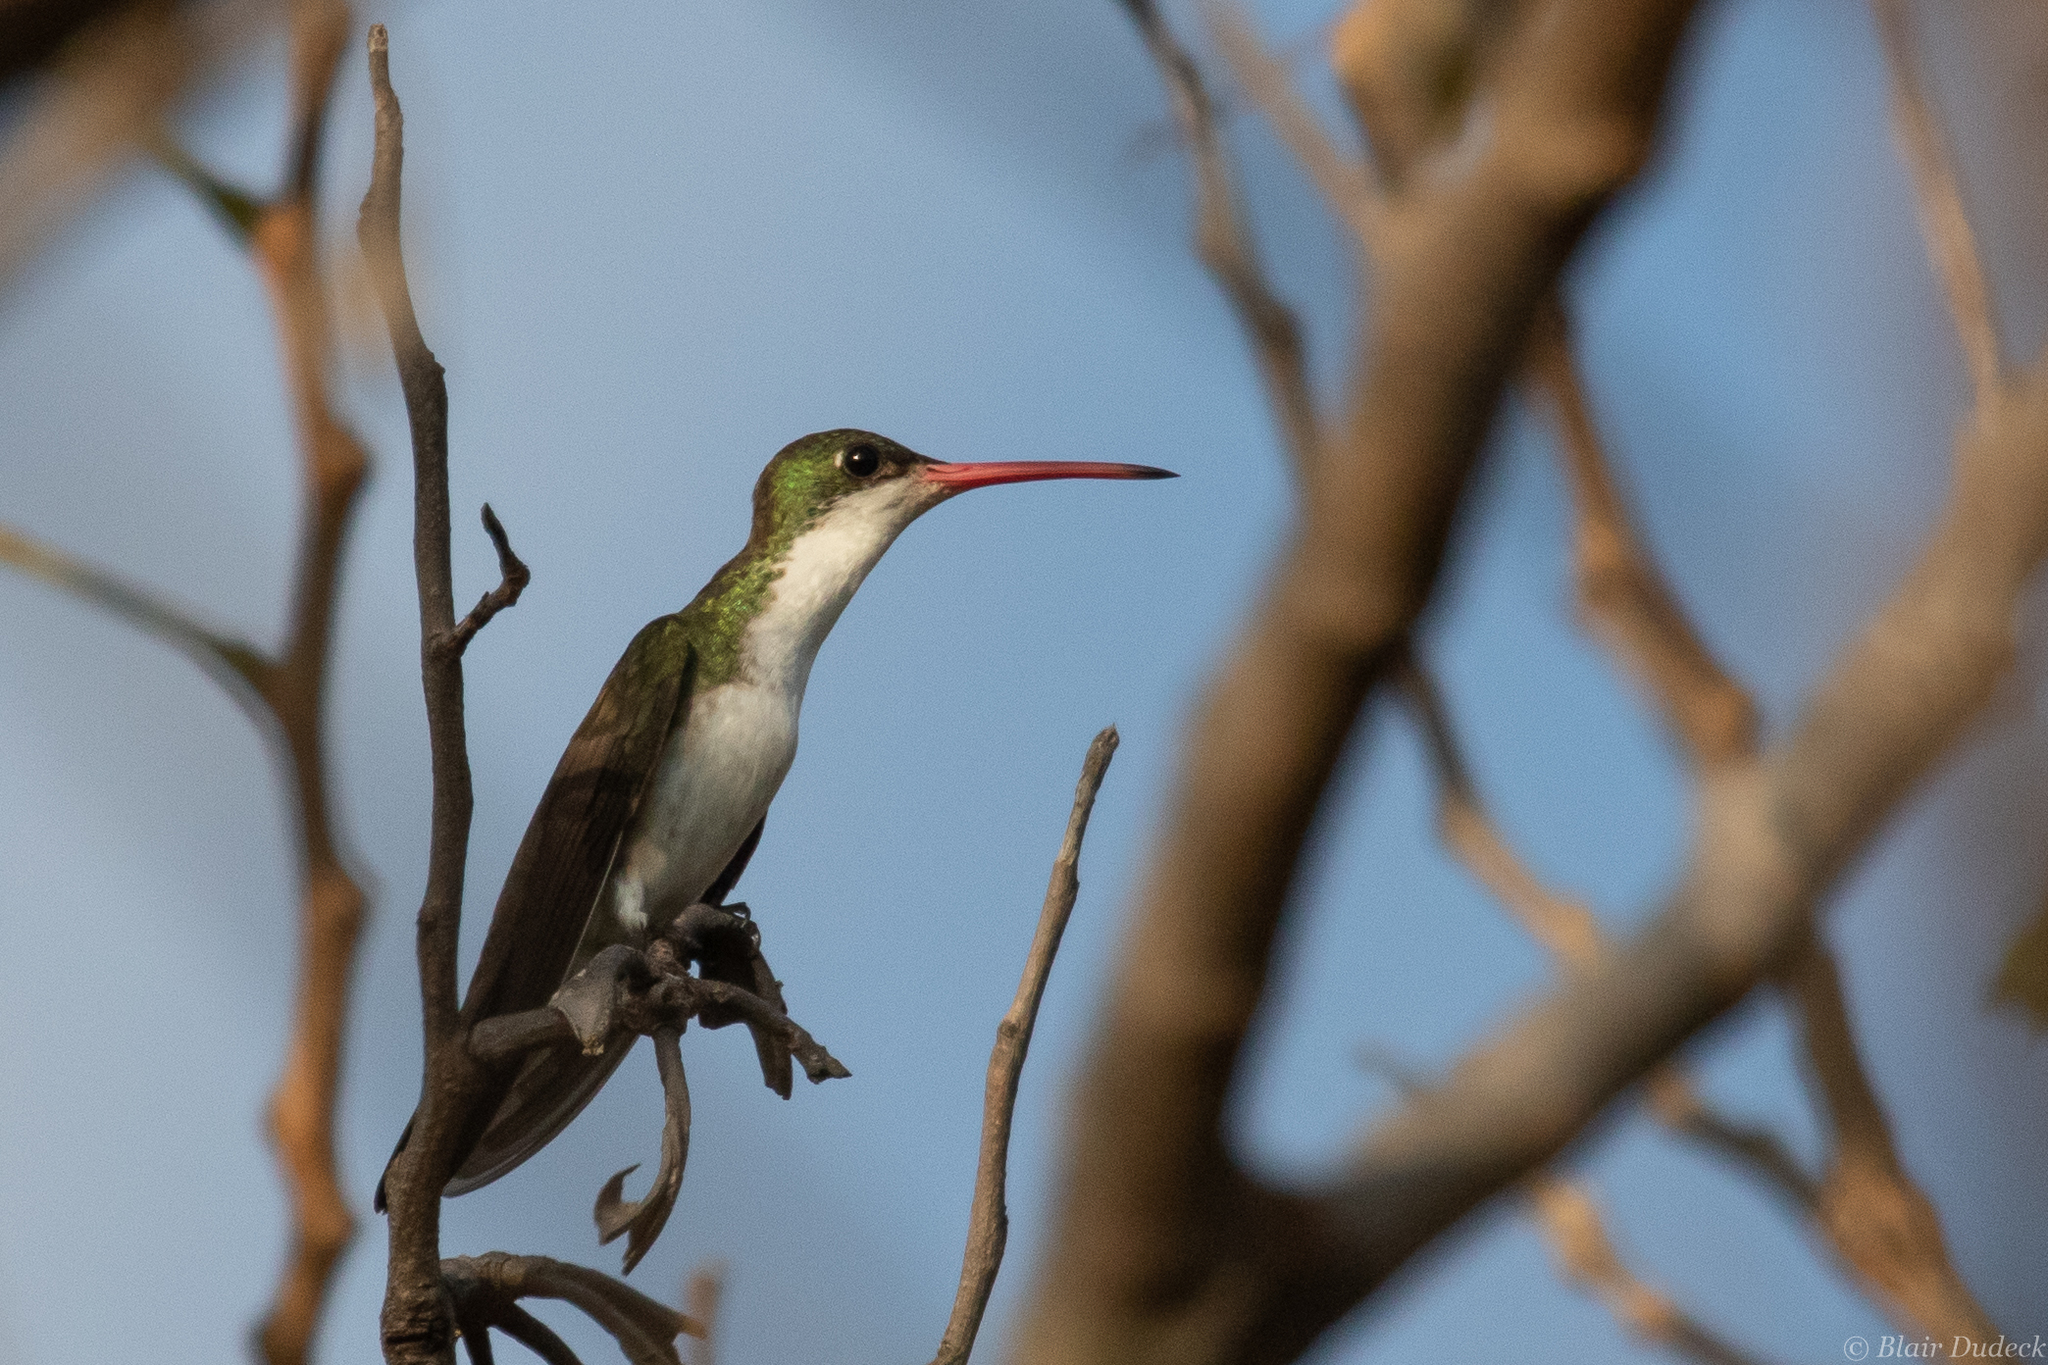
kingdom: Animalia
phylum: Chordata
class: Aves
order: Apodiformes
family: Trochilidae
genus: Leucolia
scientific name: Leucolia viridifrons
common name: Green-fronted hummingbird
